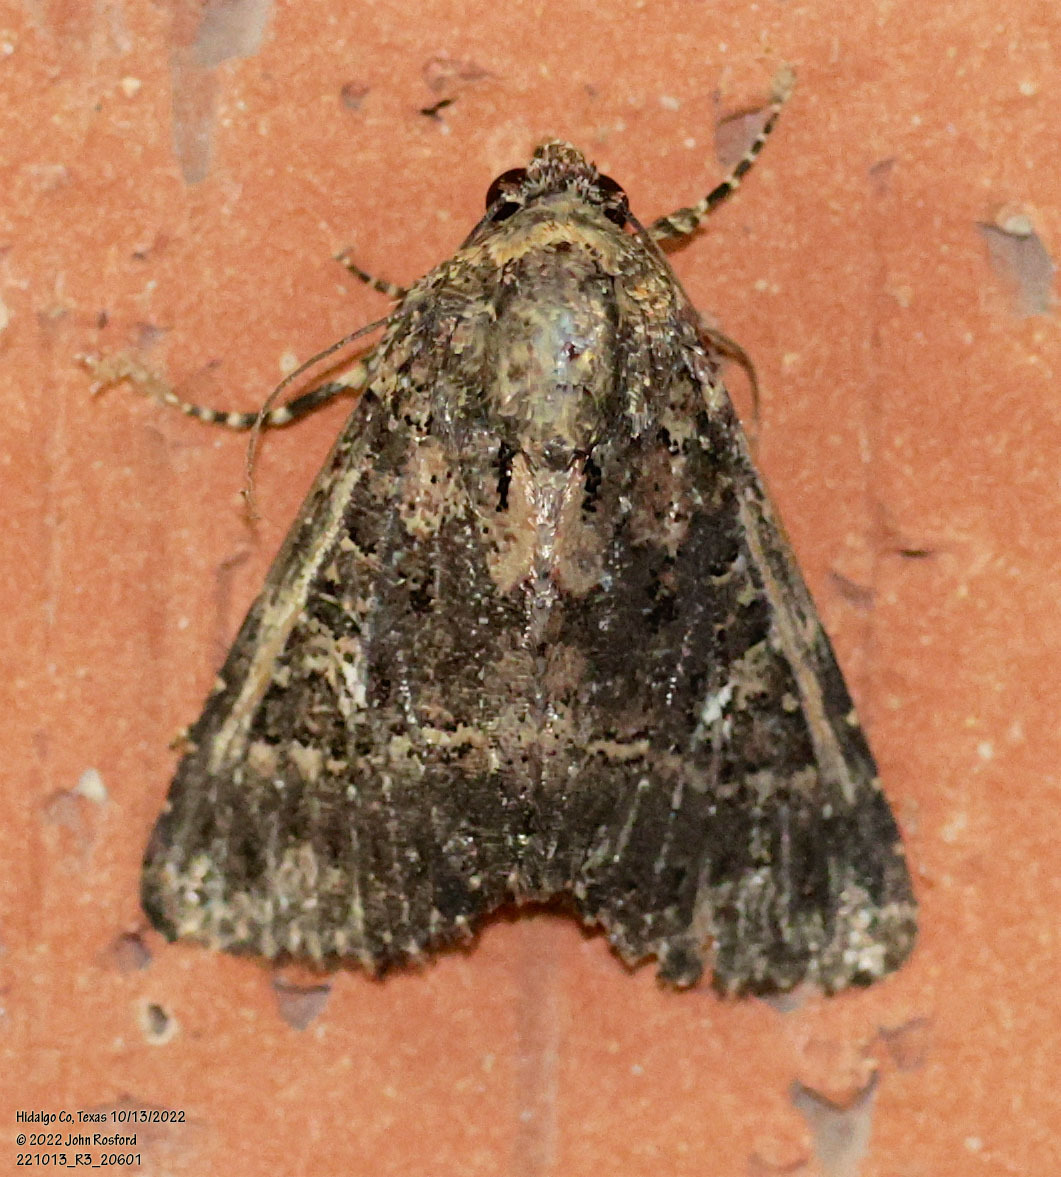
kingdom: Animalia
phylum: Arthropoda
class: Insecta
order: Lepidoptera
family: Noctuidae
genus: Condica
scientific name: Condica albigera
